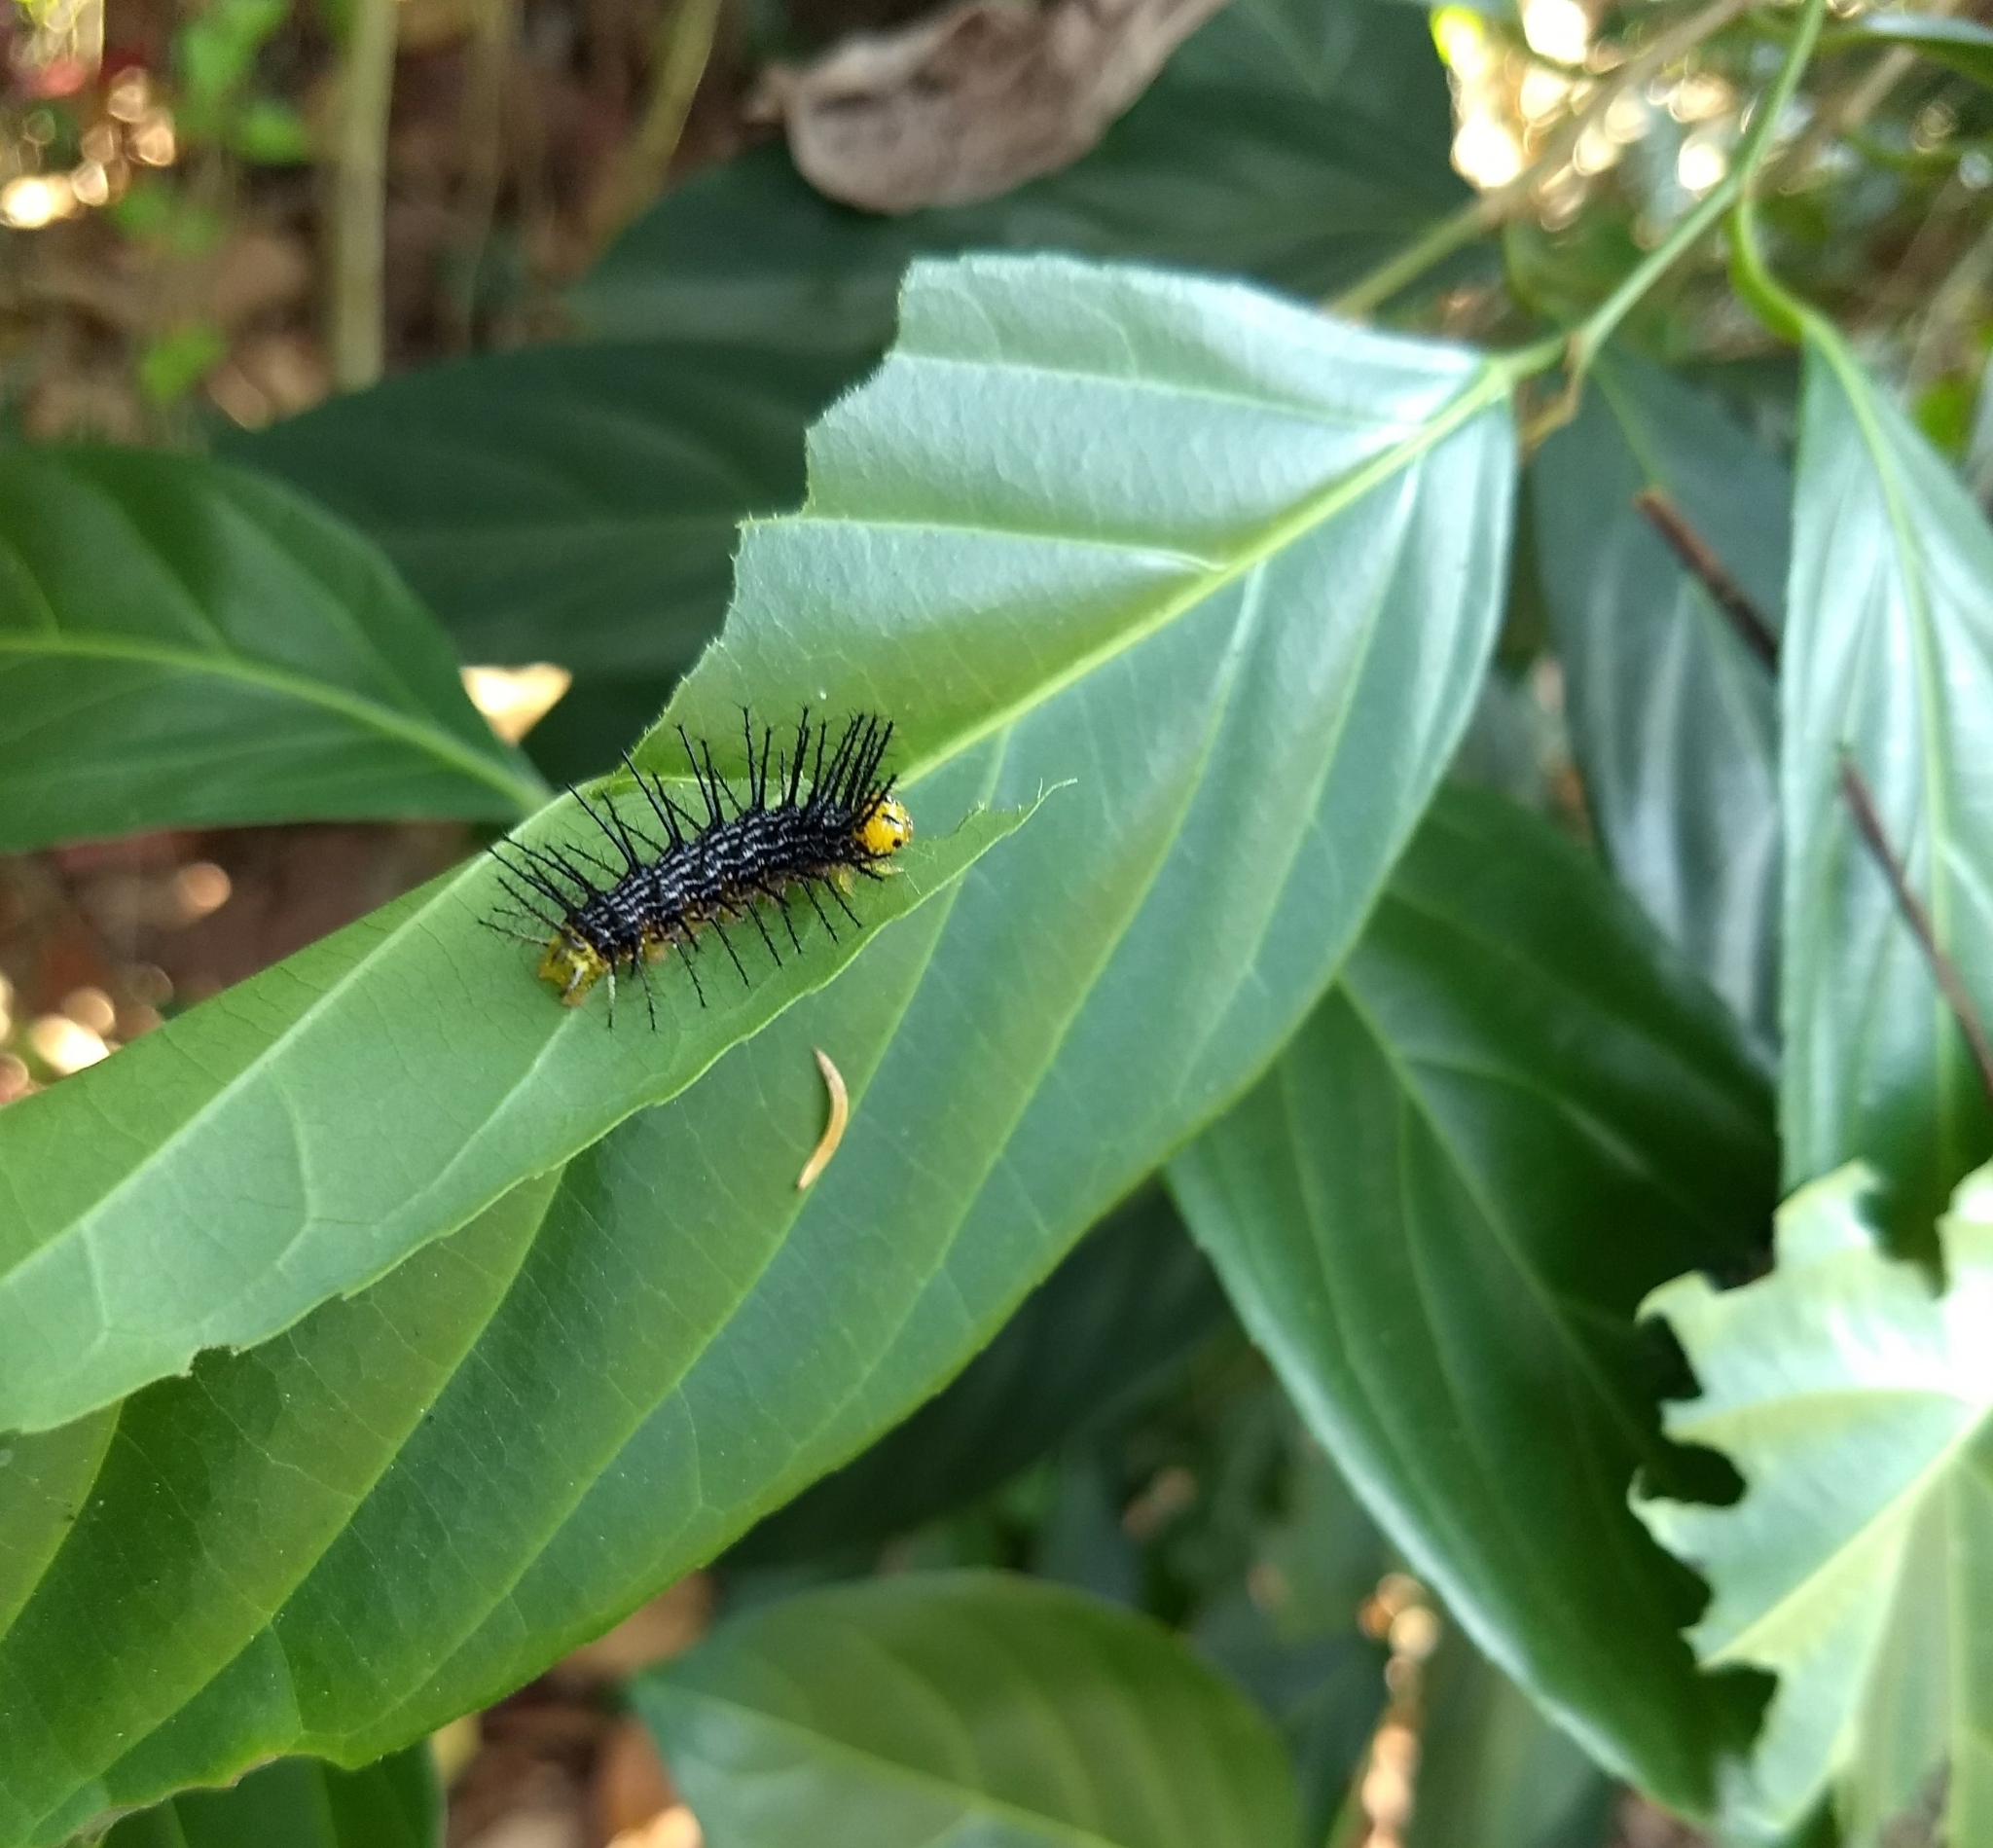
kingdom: Animalia
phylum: Arthropoda
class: Insecta
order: Lepidoptera
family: Nymphalidae
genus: Cirrochroa
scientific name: Cirrochroa thais
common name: Tamil yeoman
